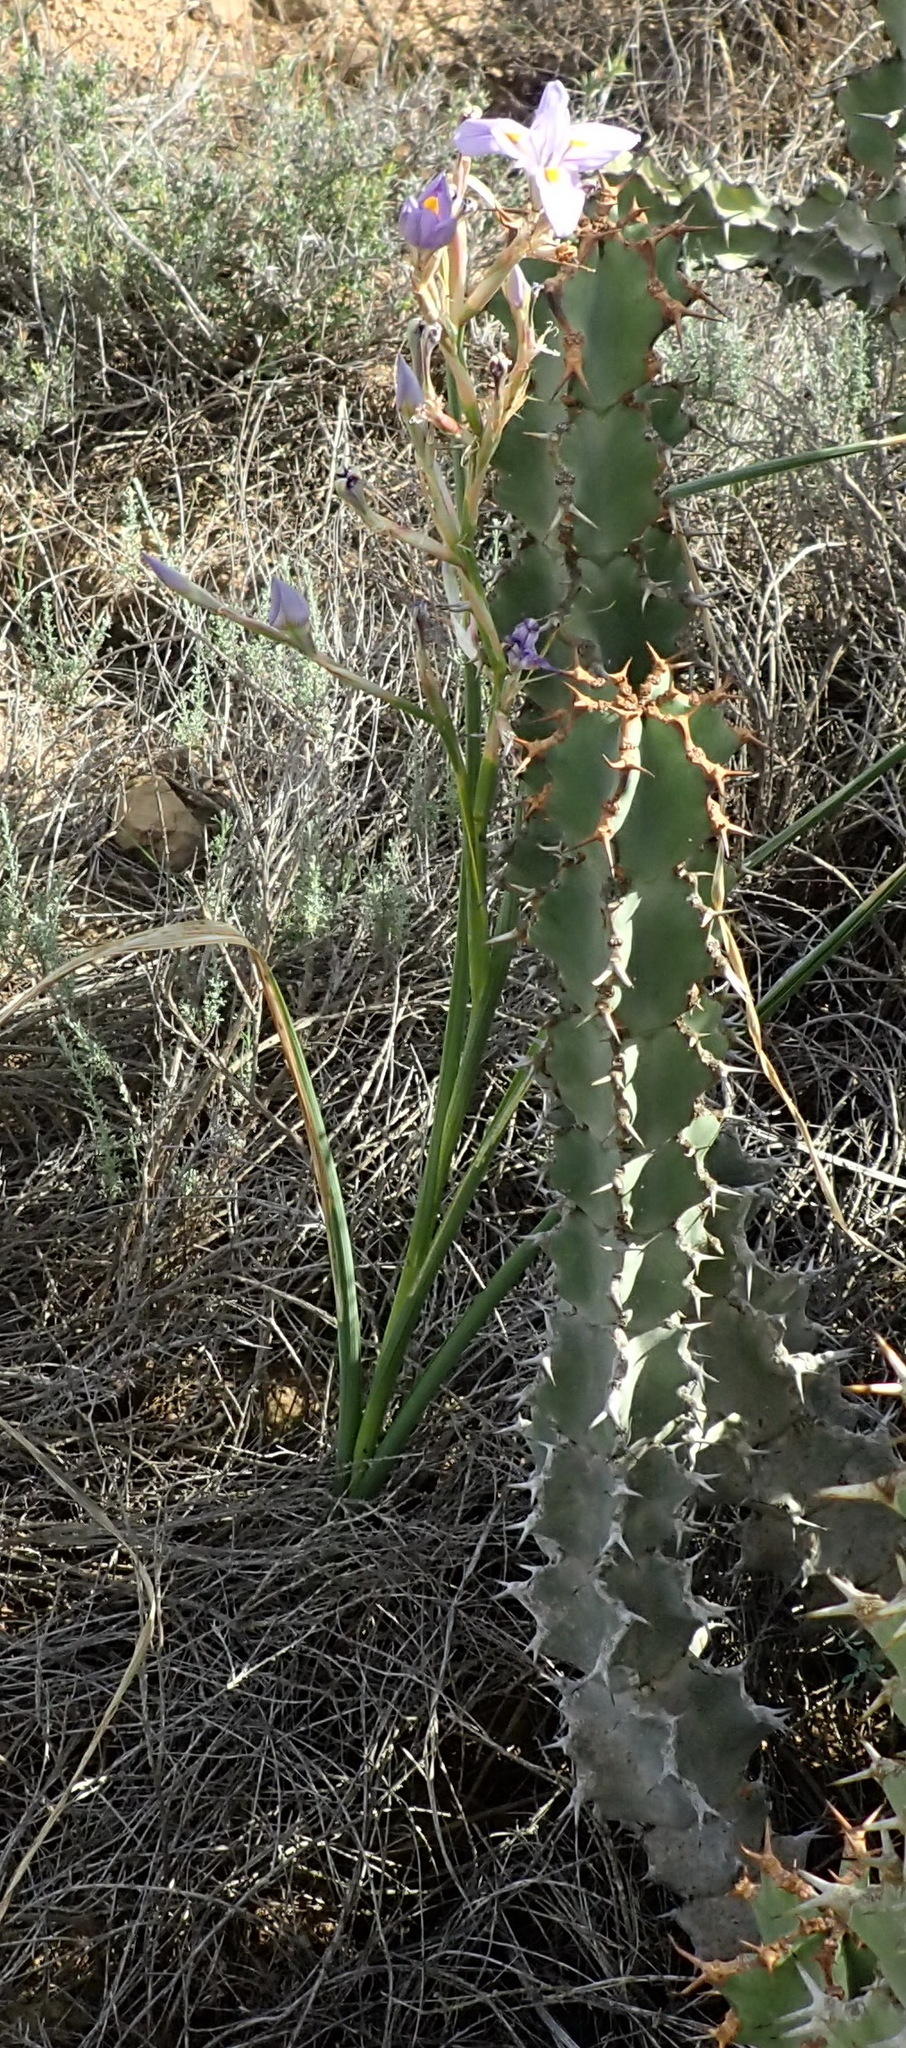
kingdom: Plantae
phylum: Tracheophyta
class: Liliopsida
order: Asparagales
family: Iridaceae
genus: Moraea
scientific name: Moraea polystachya
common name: Blue-tulip
